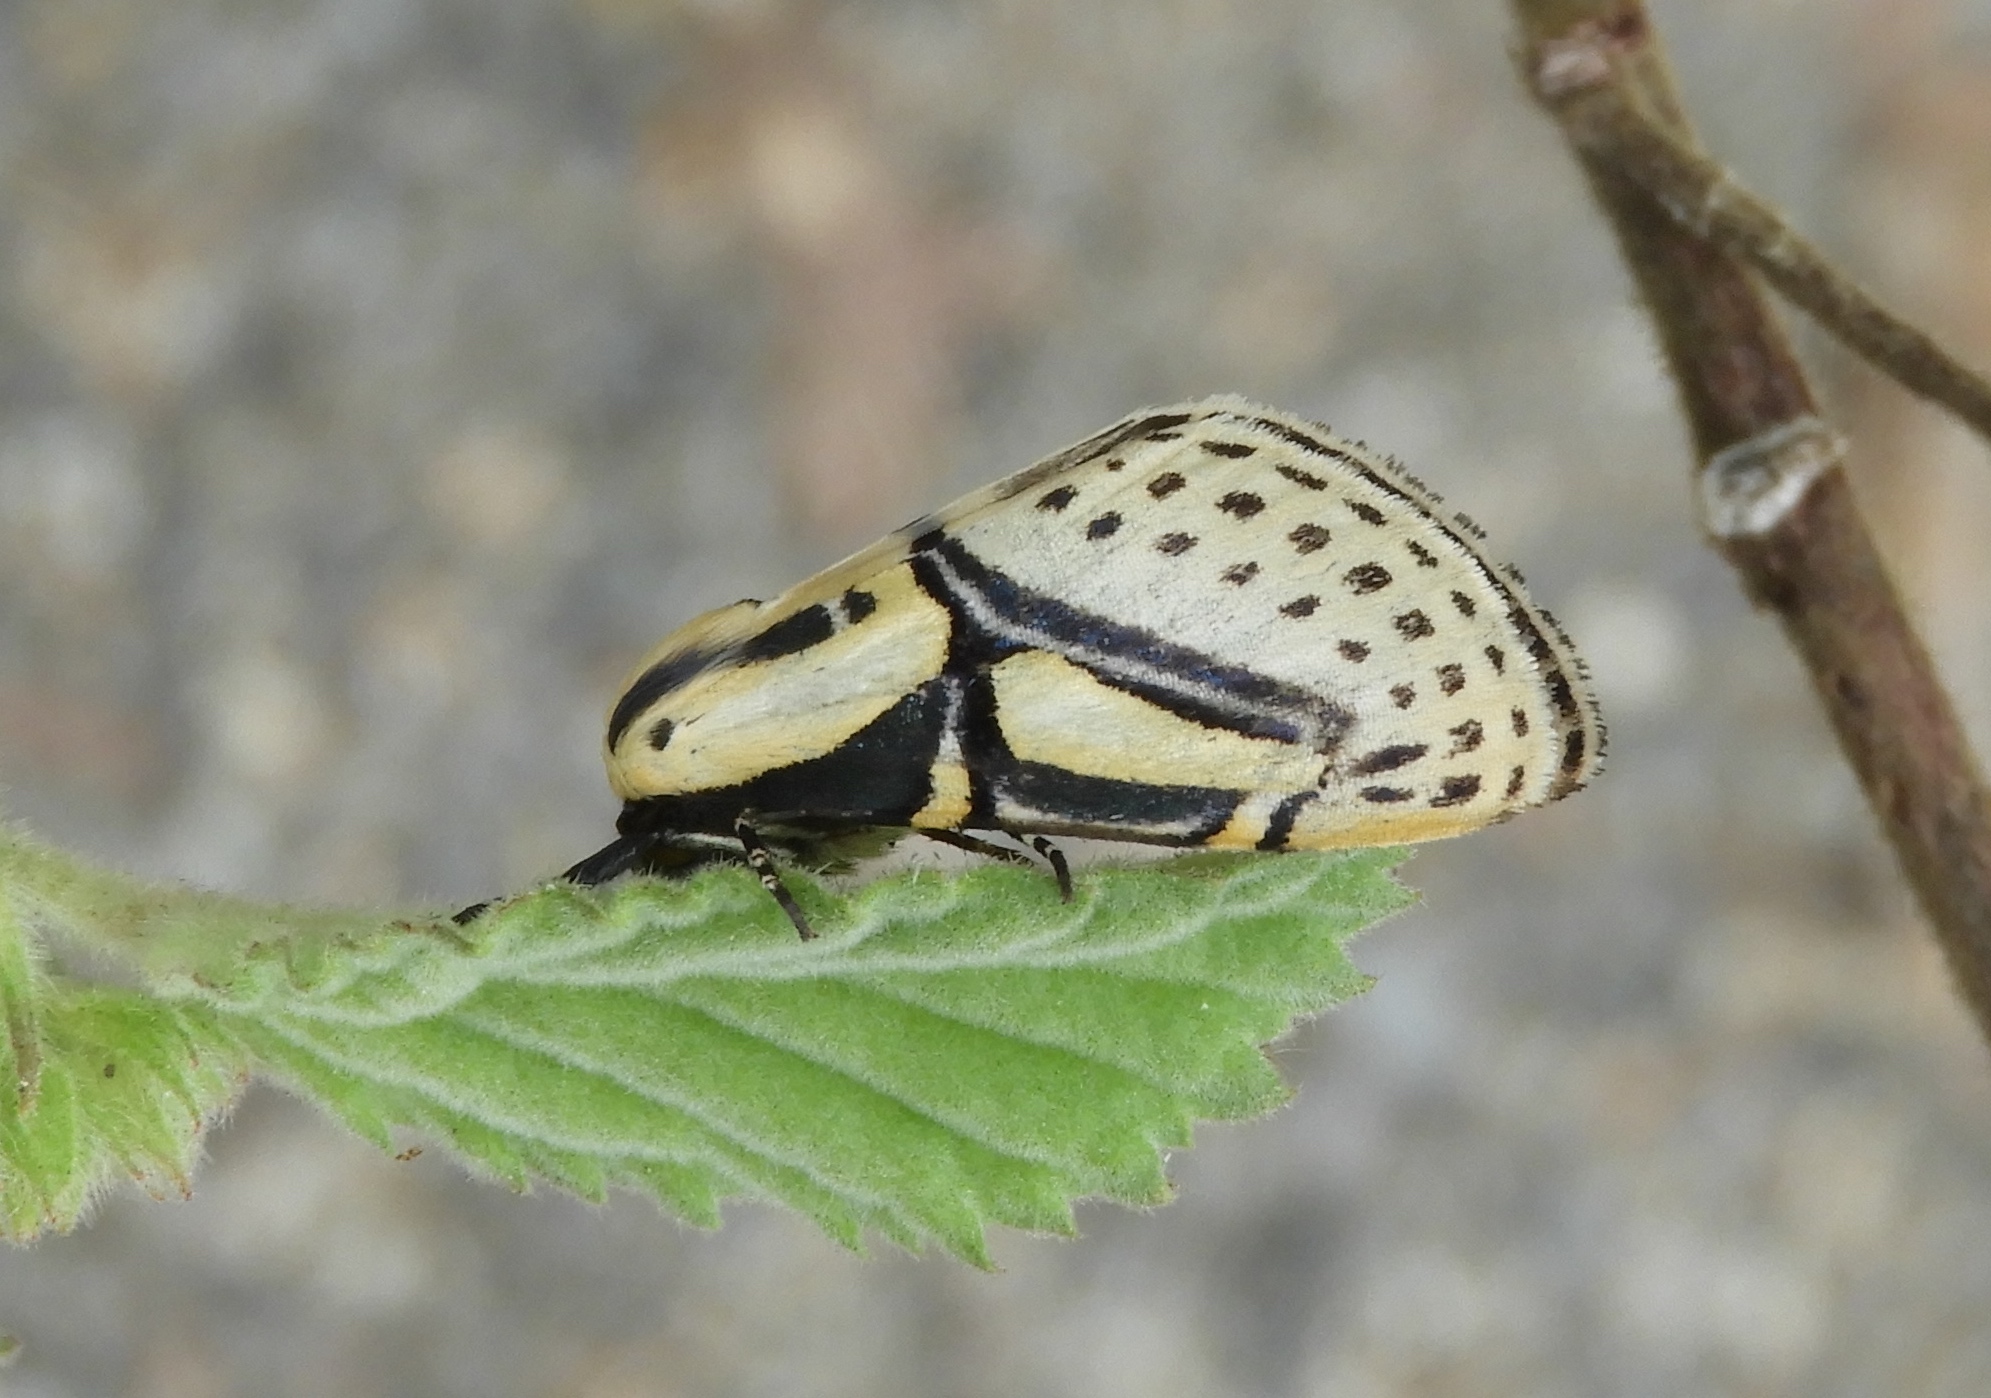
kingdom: Animalia
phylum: Arthropoda
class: Insecta
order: Lepidoptera
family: Erebidae
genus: Diphthera
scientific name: Diphthera festiva
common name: Hieroglyphic moth
